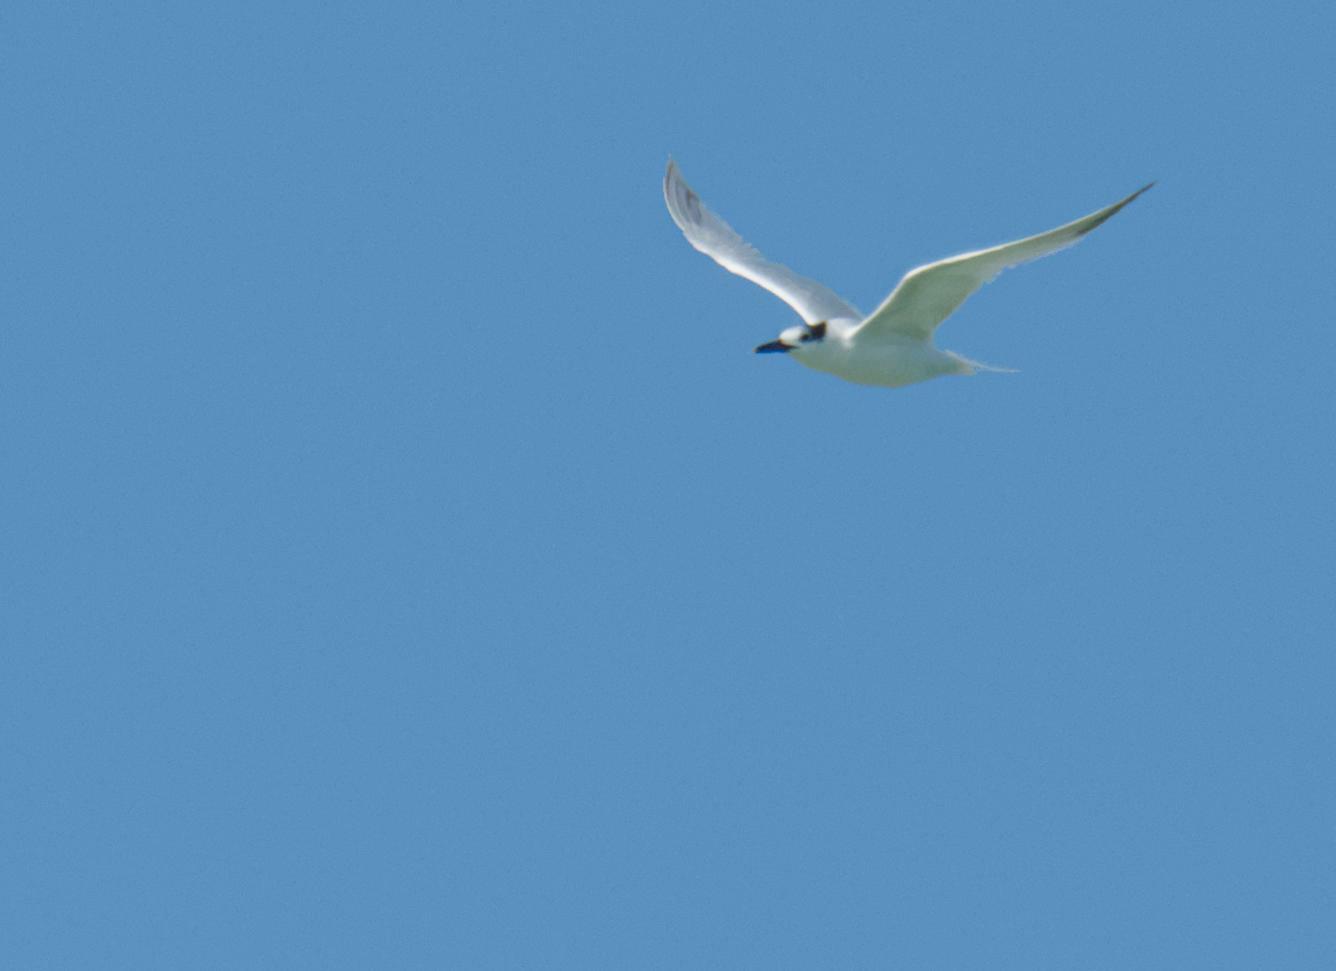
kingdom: Animalia
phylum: Chordata
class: Aves
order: Charadriiformes
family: Laridae
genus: Thalasseus
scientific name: Thalasseus sandvicensis
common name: Sandwich tern
